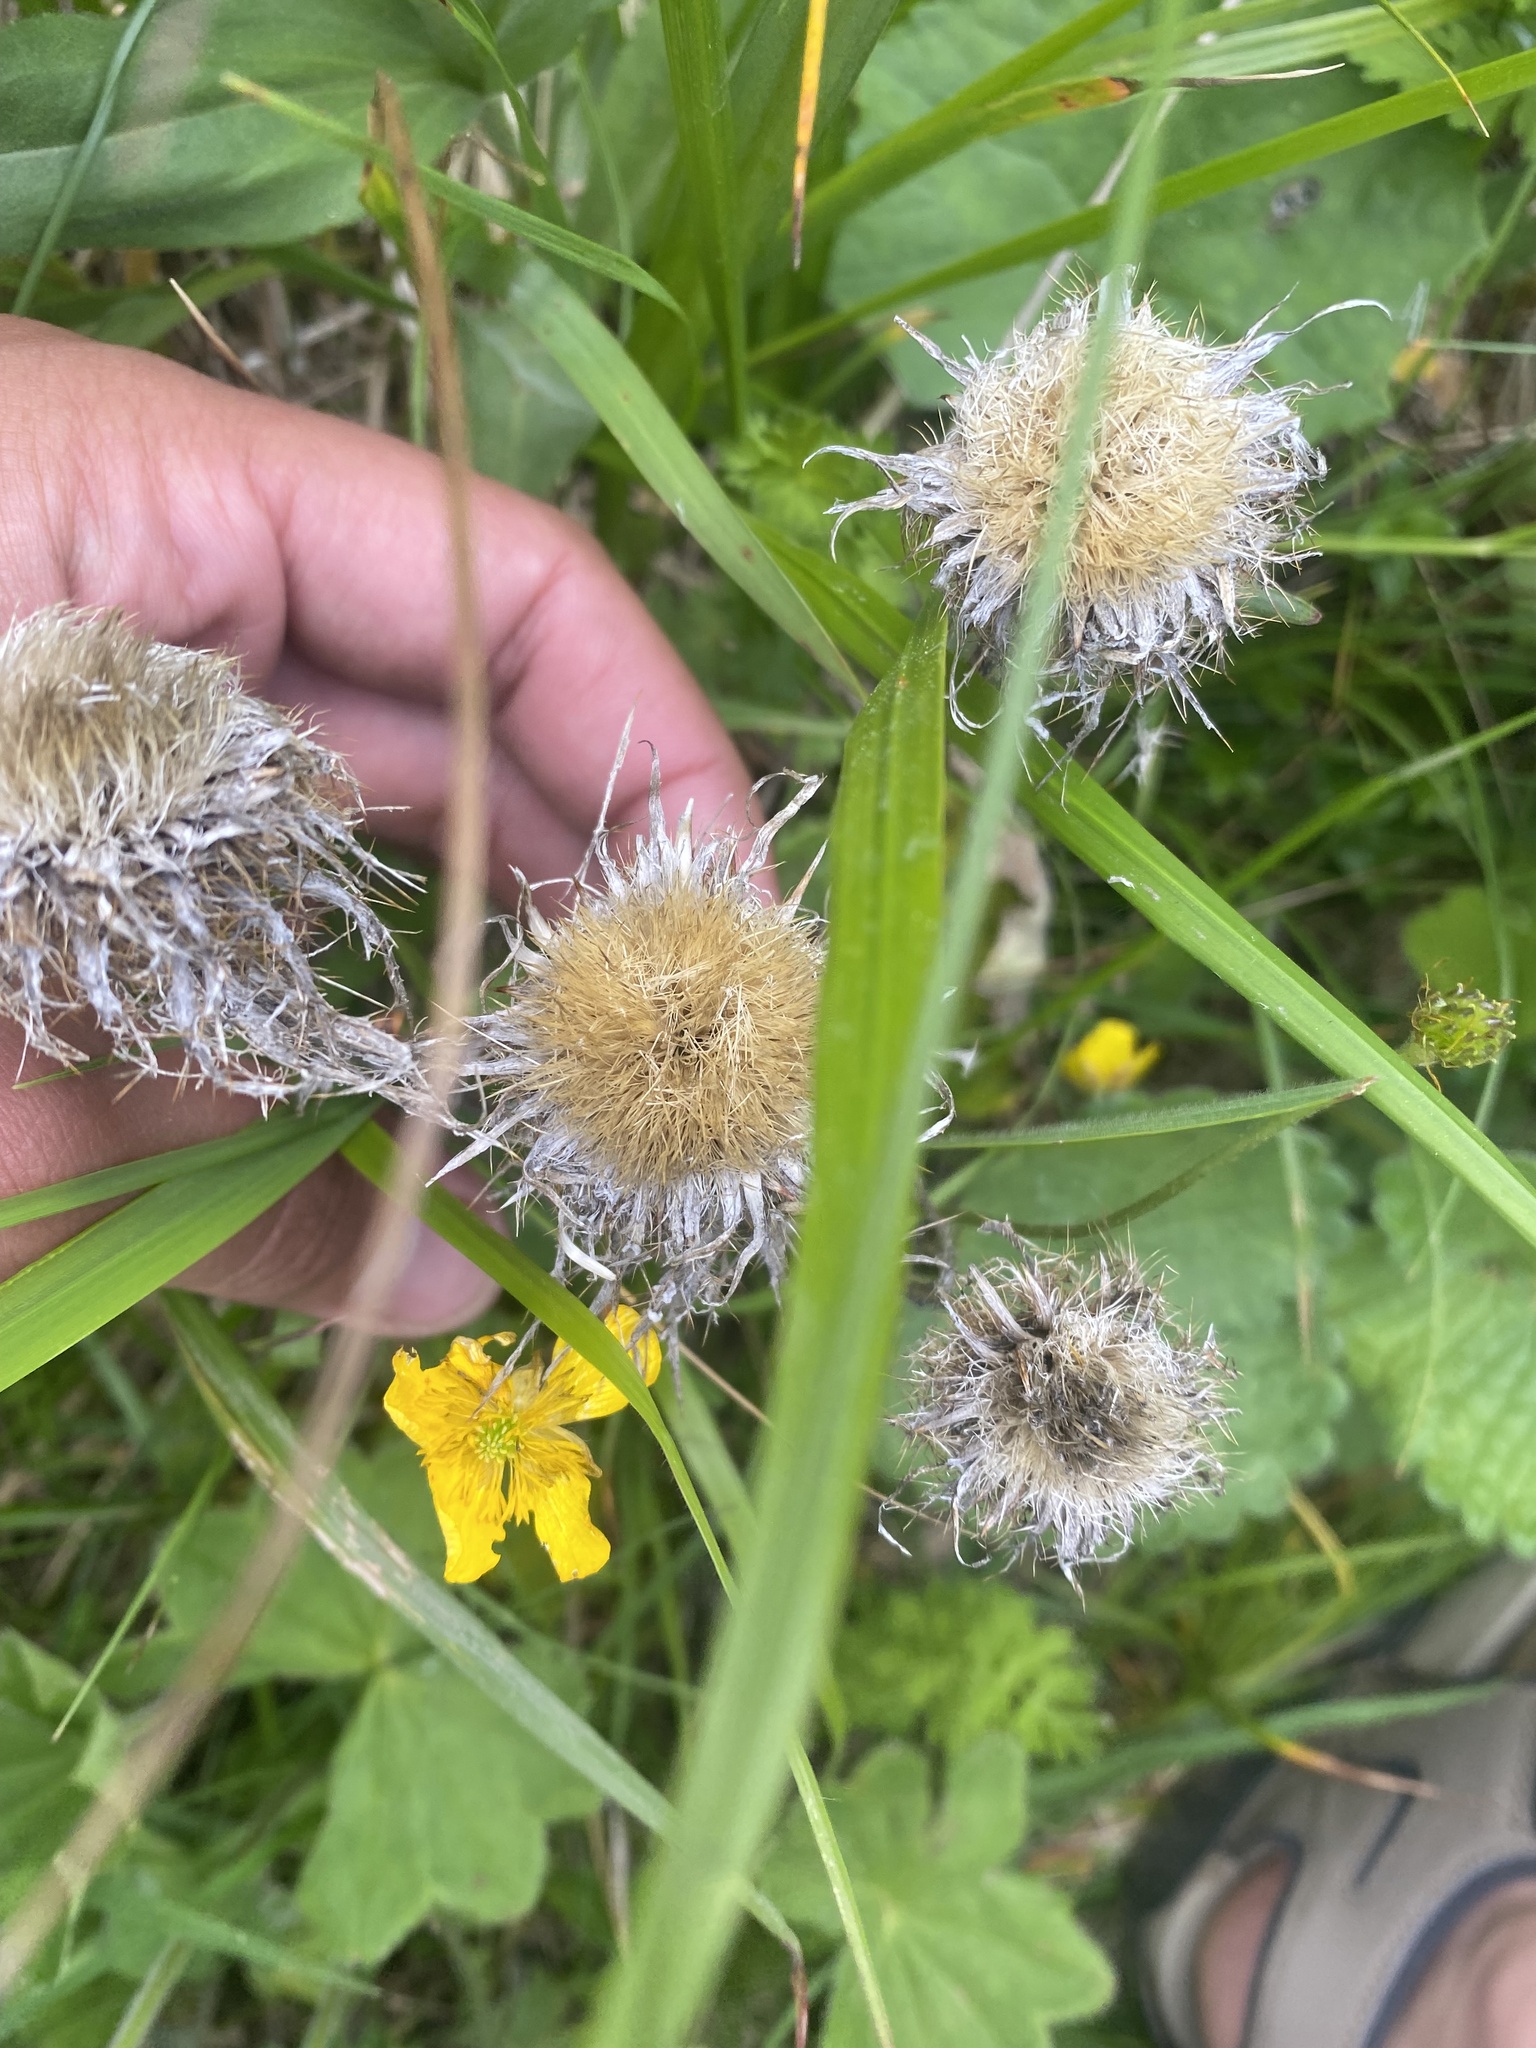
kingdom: Plantae
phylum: Tracheophyta
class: Magnoliopsida
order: Asterales
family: Asteraceae
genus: Carlina
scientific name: Carlina biebersteinii
